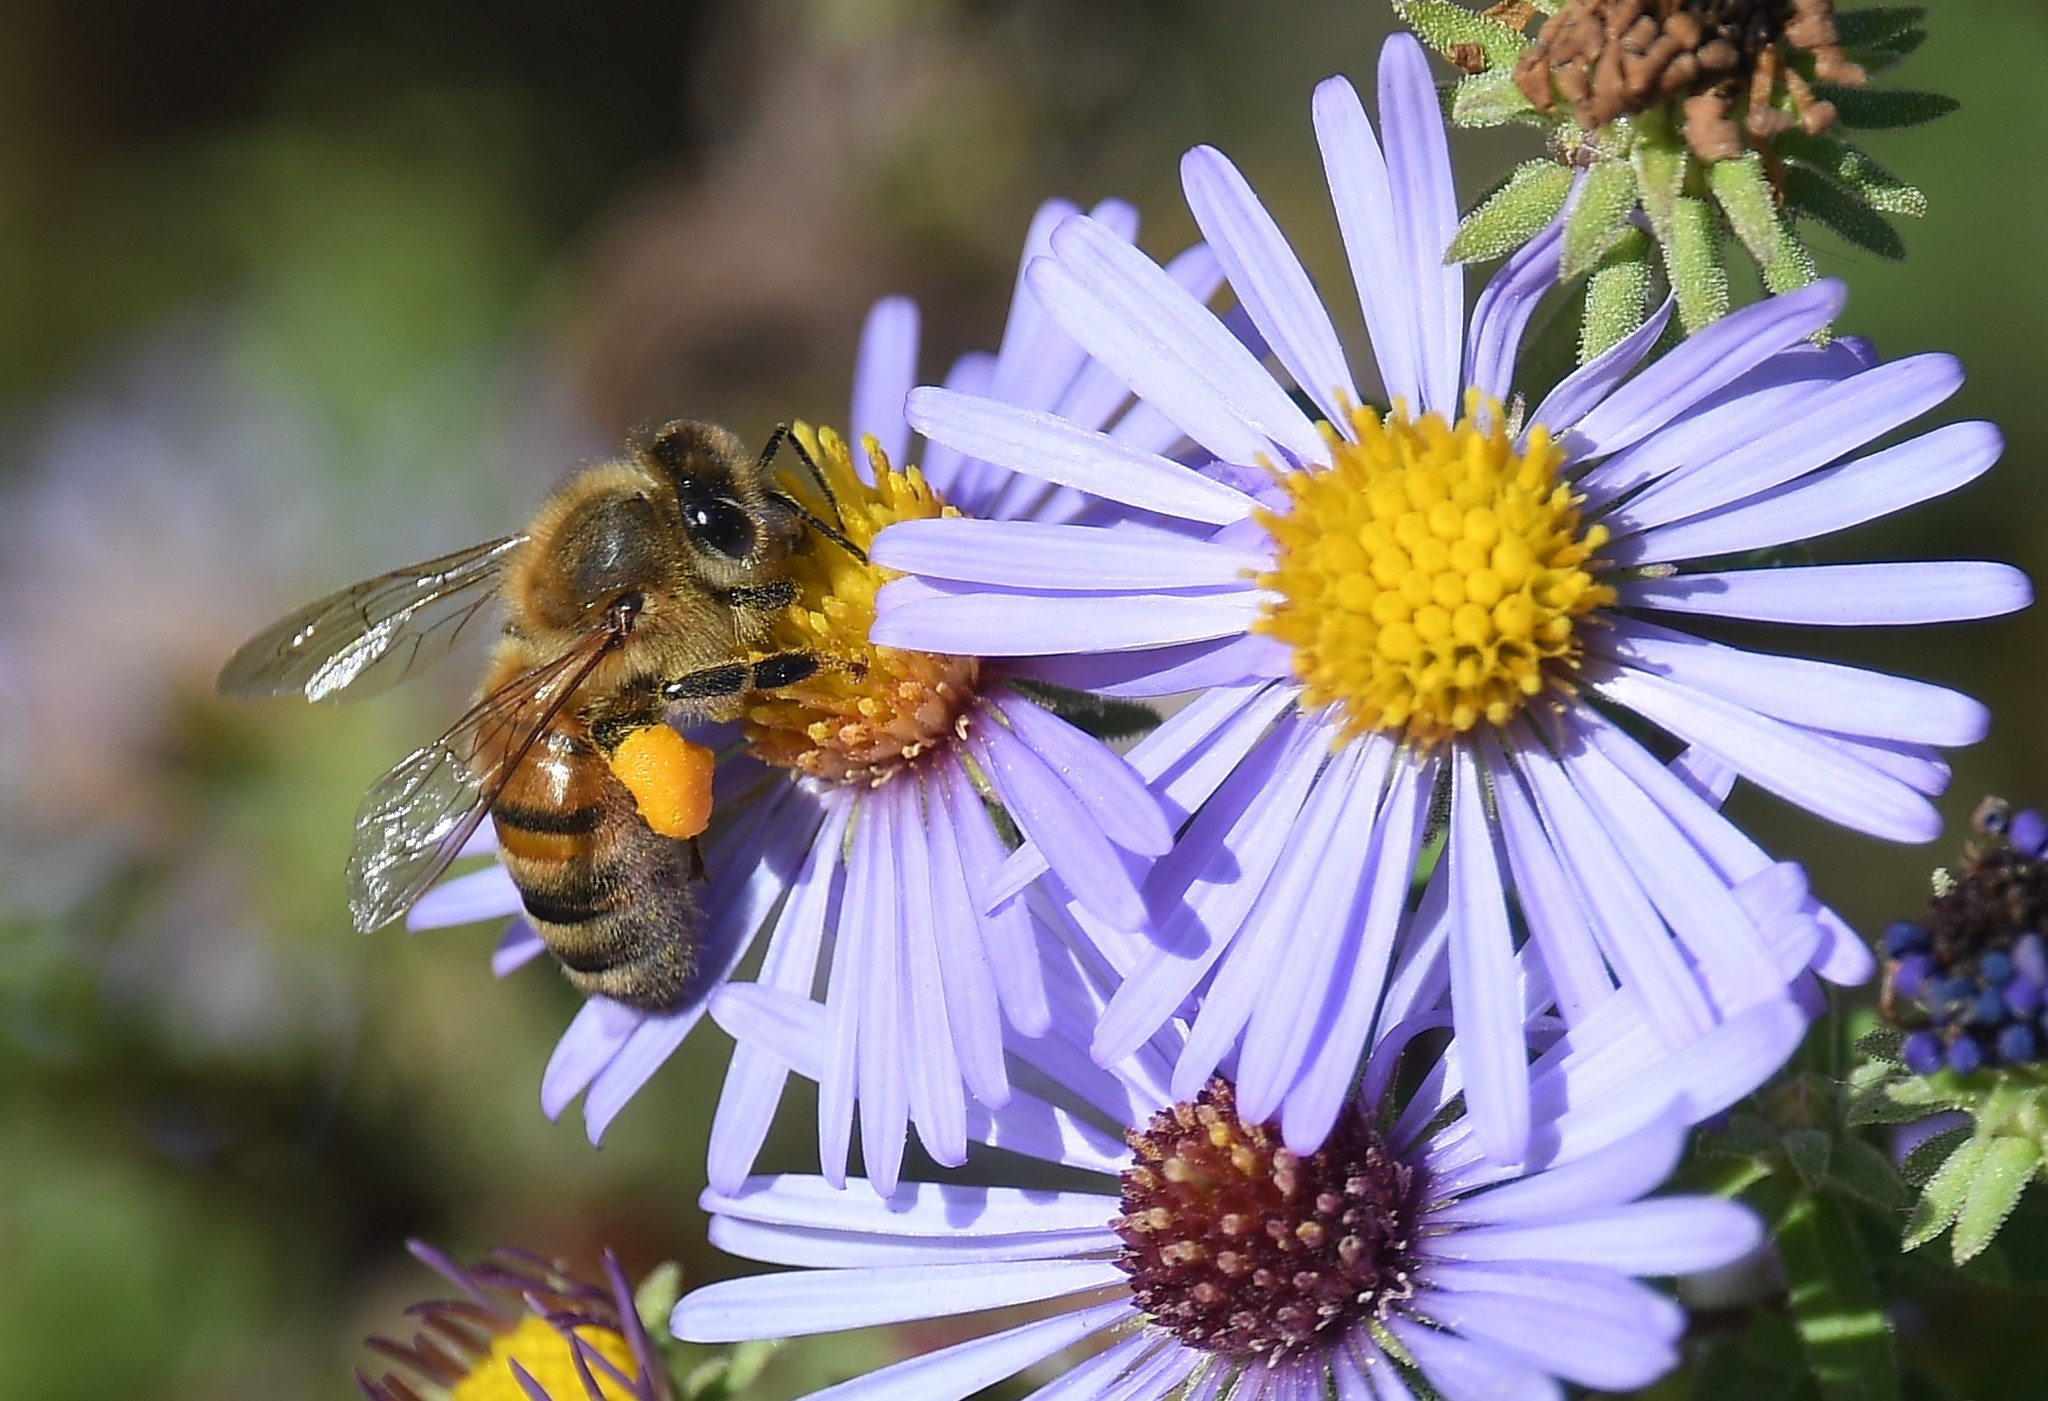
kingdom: Animalia
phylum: Arthropoda
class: Insecta
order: Hymenoptera
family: Apidae
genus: Apis
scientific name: Apis mellifera
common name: Honey bee
